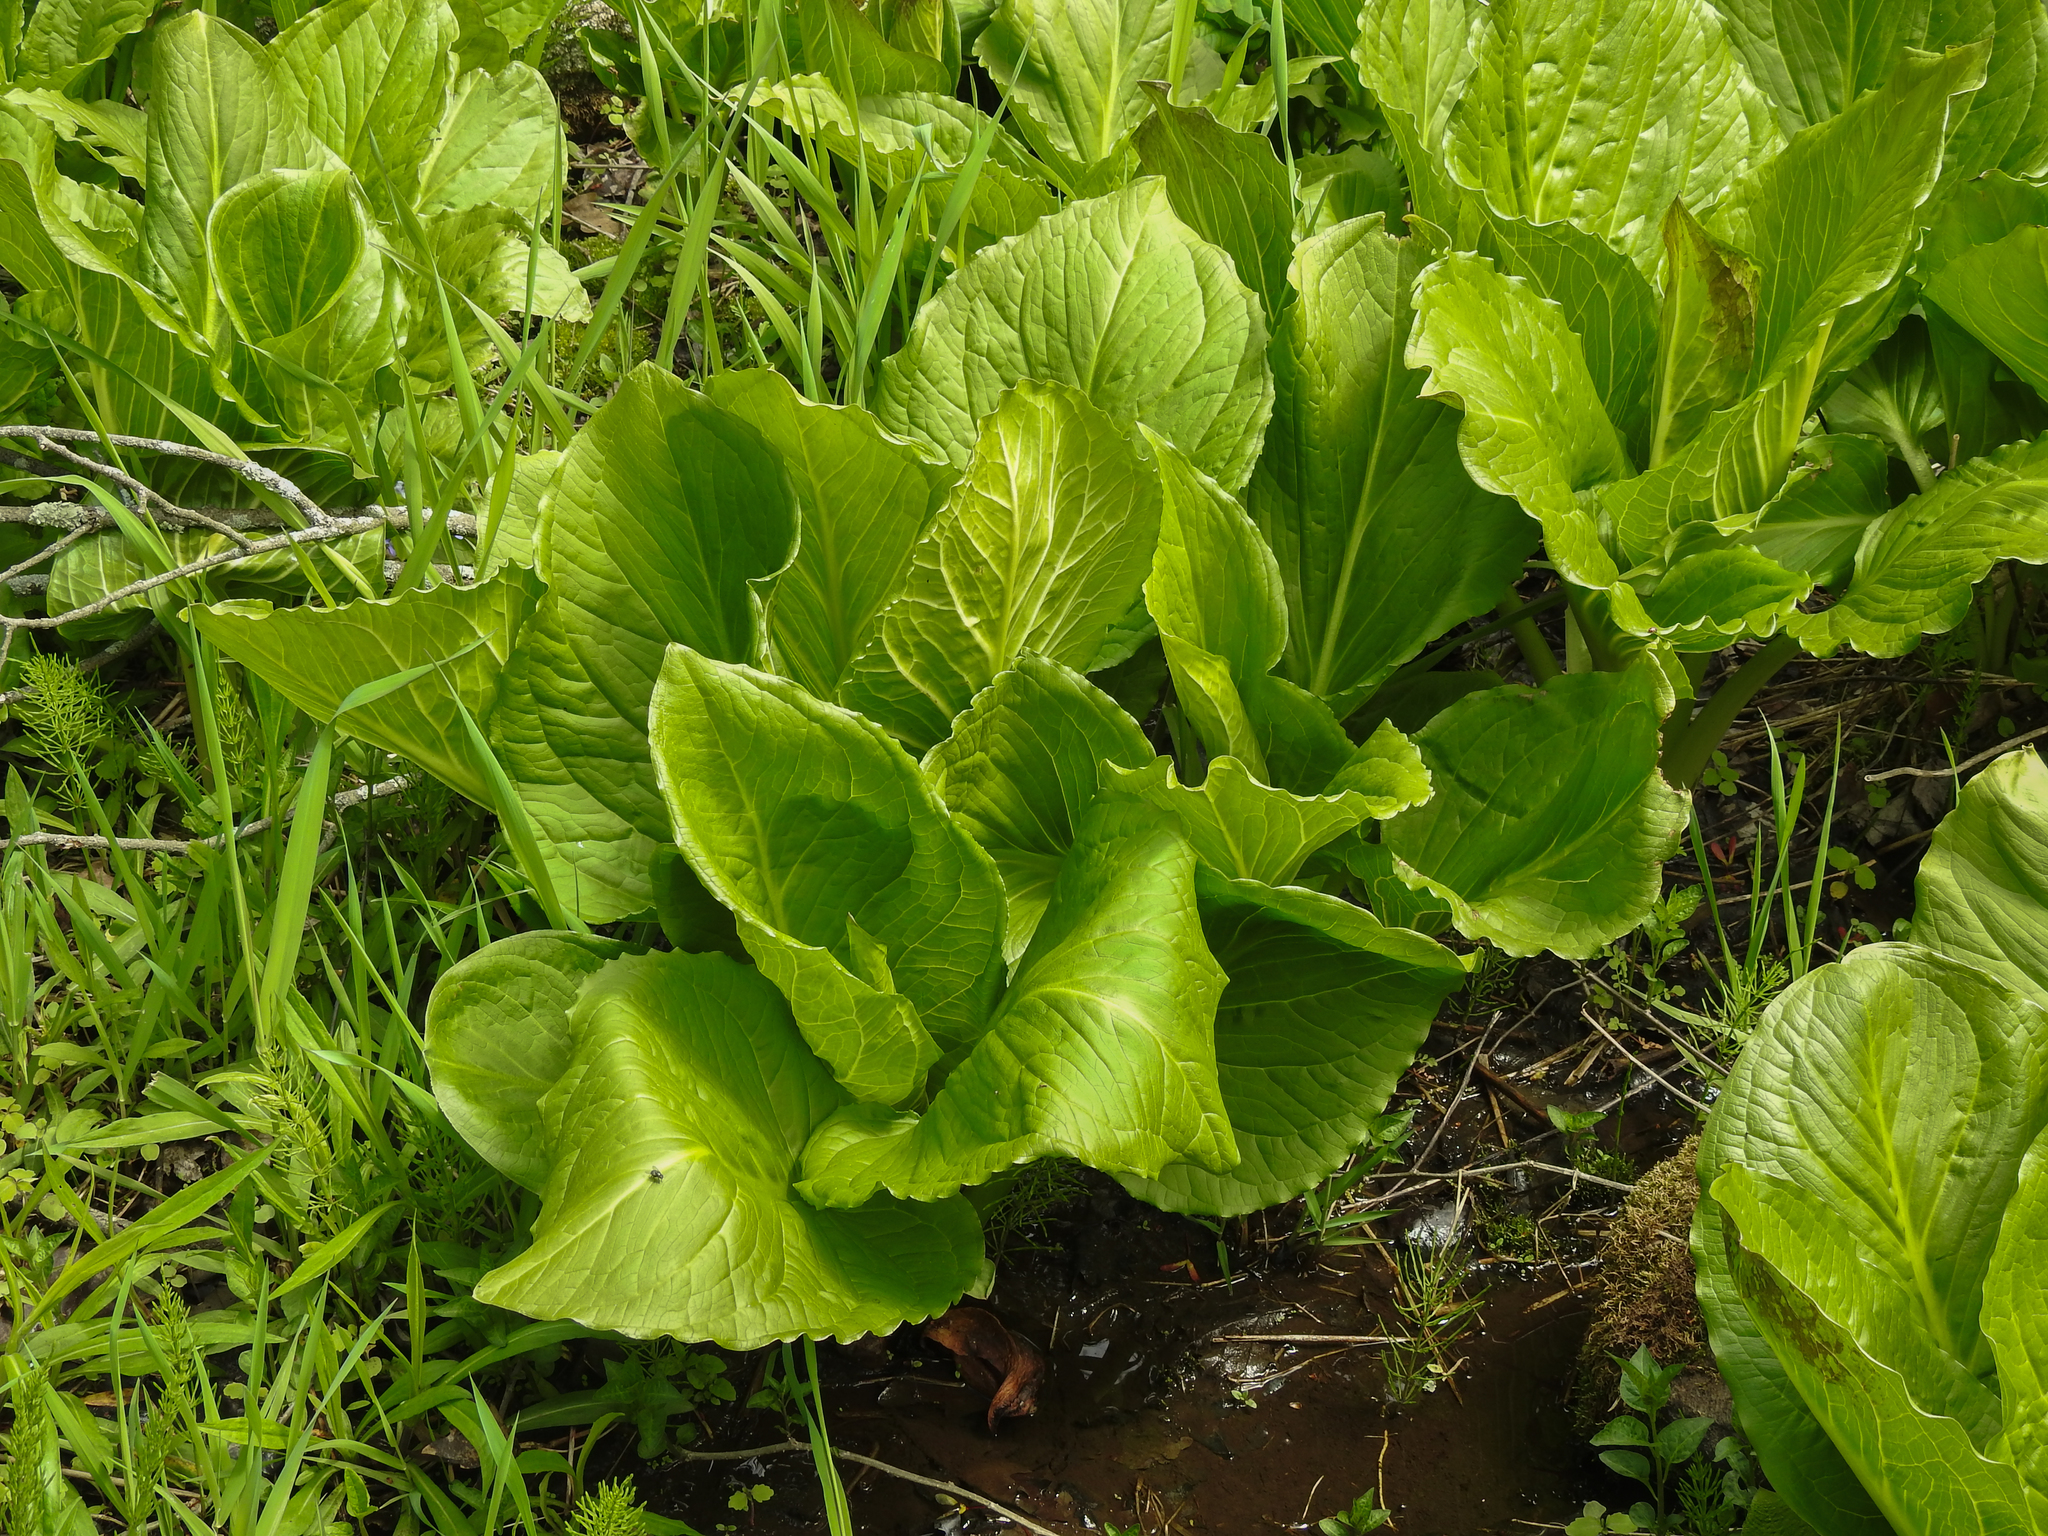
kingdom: Plantae
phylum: Tracheophyta
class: Liliopsida
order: Alismatales
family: Araceae
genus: Symplocarpus
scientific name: Symplocarpus foetidus
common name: Eastern skunk cabbage
